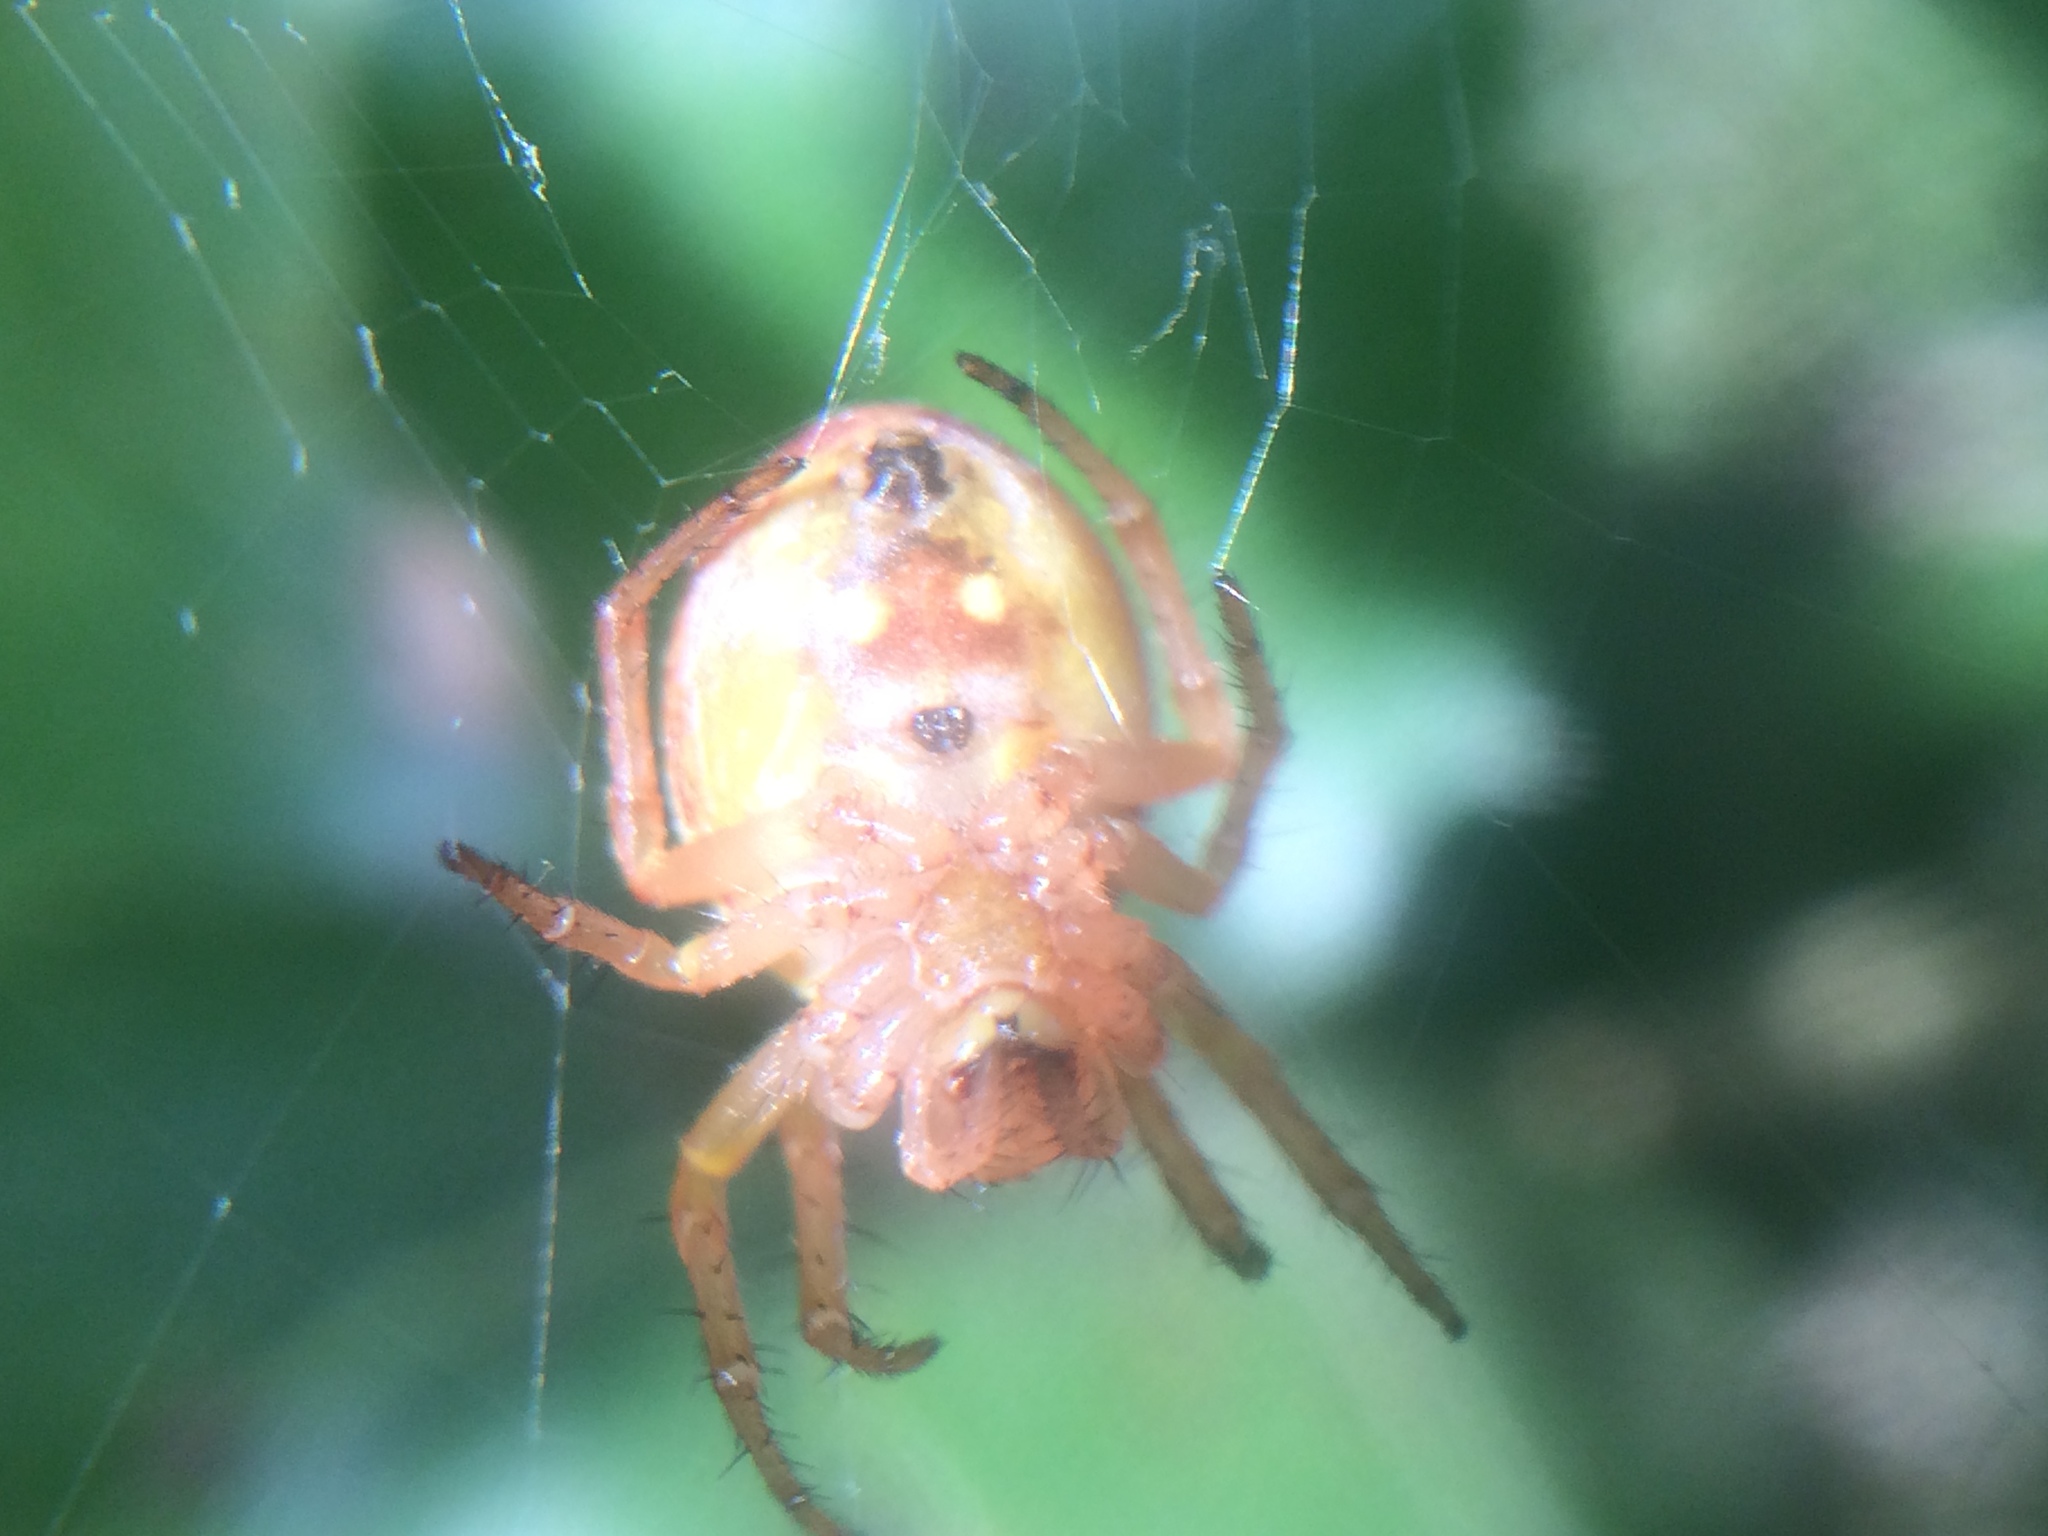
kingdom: Animalia
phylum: Arthropoda
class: Arachnida
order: Araneae
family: Araneidae
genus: Araniella
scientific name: Araniella displicata
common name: Sixspotted orb weaver
